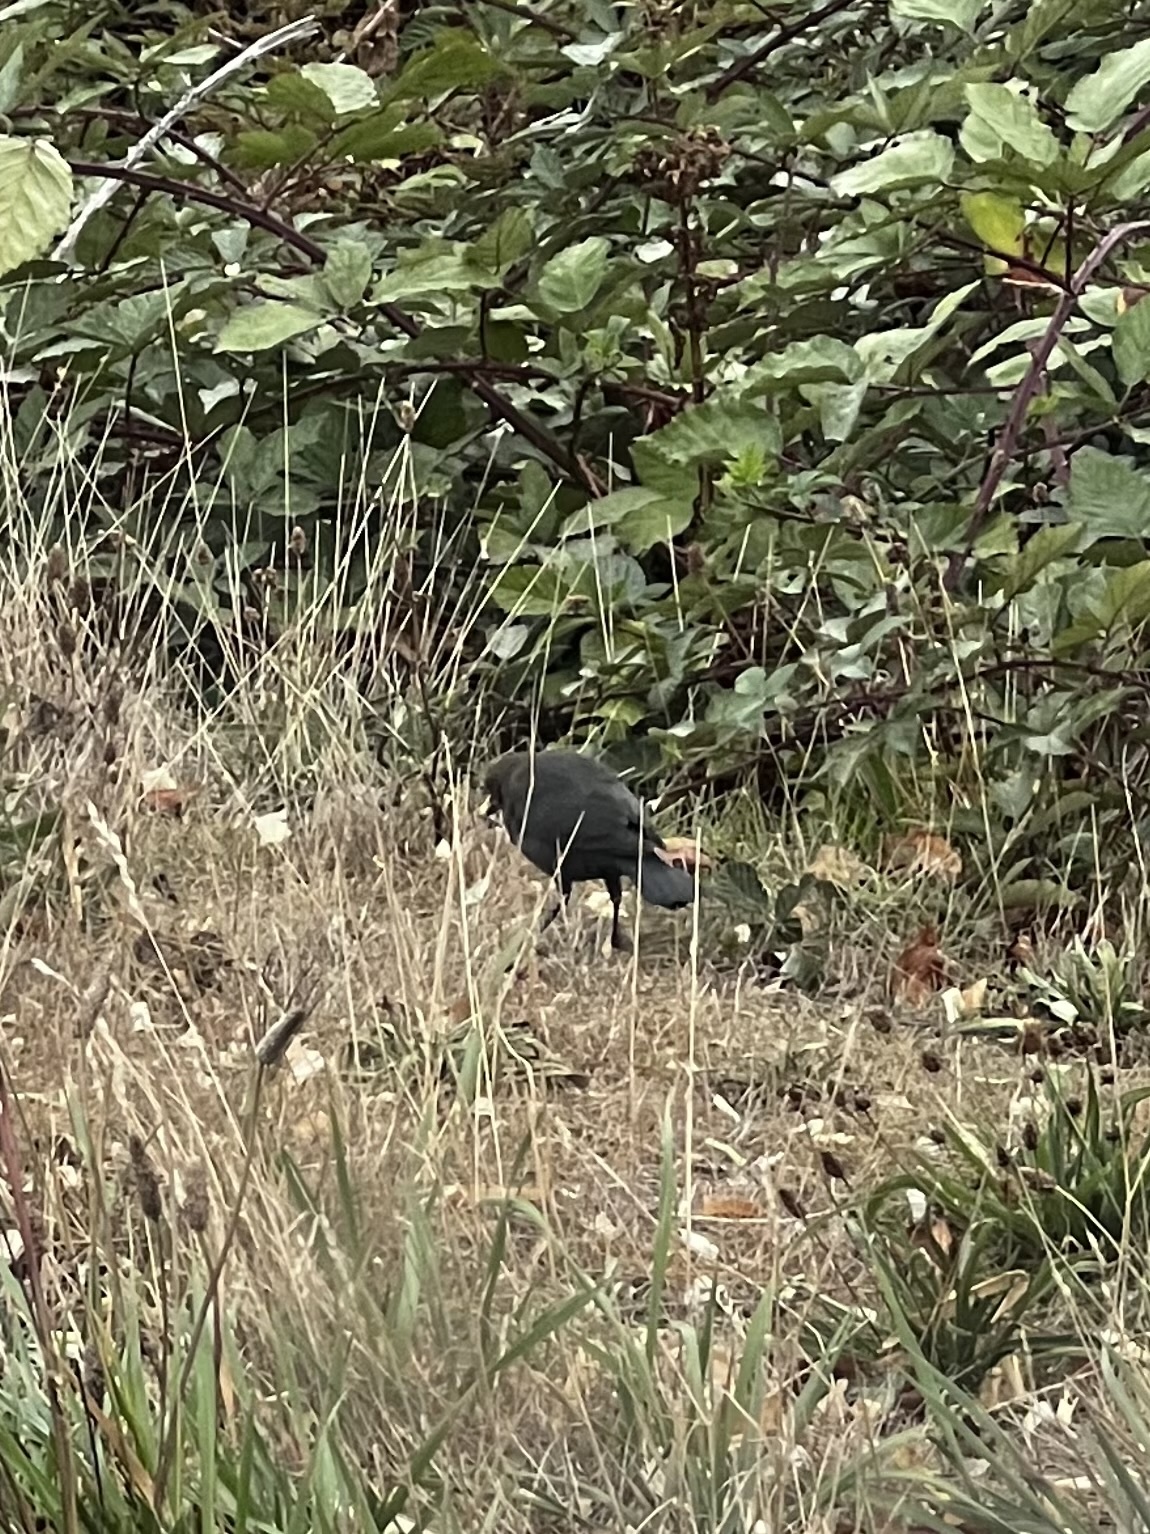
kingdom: Animalia
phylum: Chordata
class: Aves
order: Passeriformes
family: Icteridae
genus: Euphagus
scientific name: Euphagus cyanocephalus
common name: Brewer's blackbird
